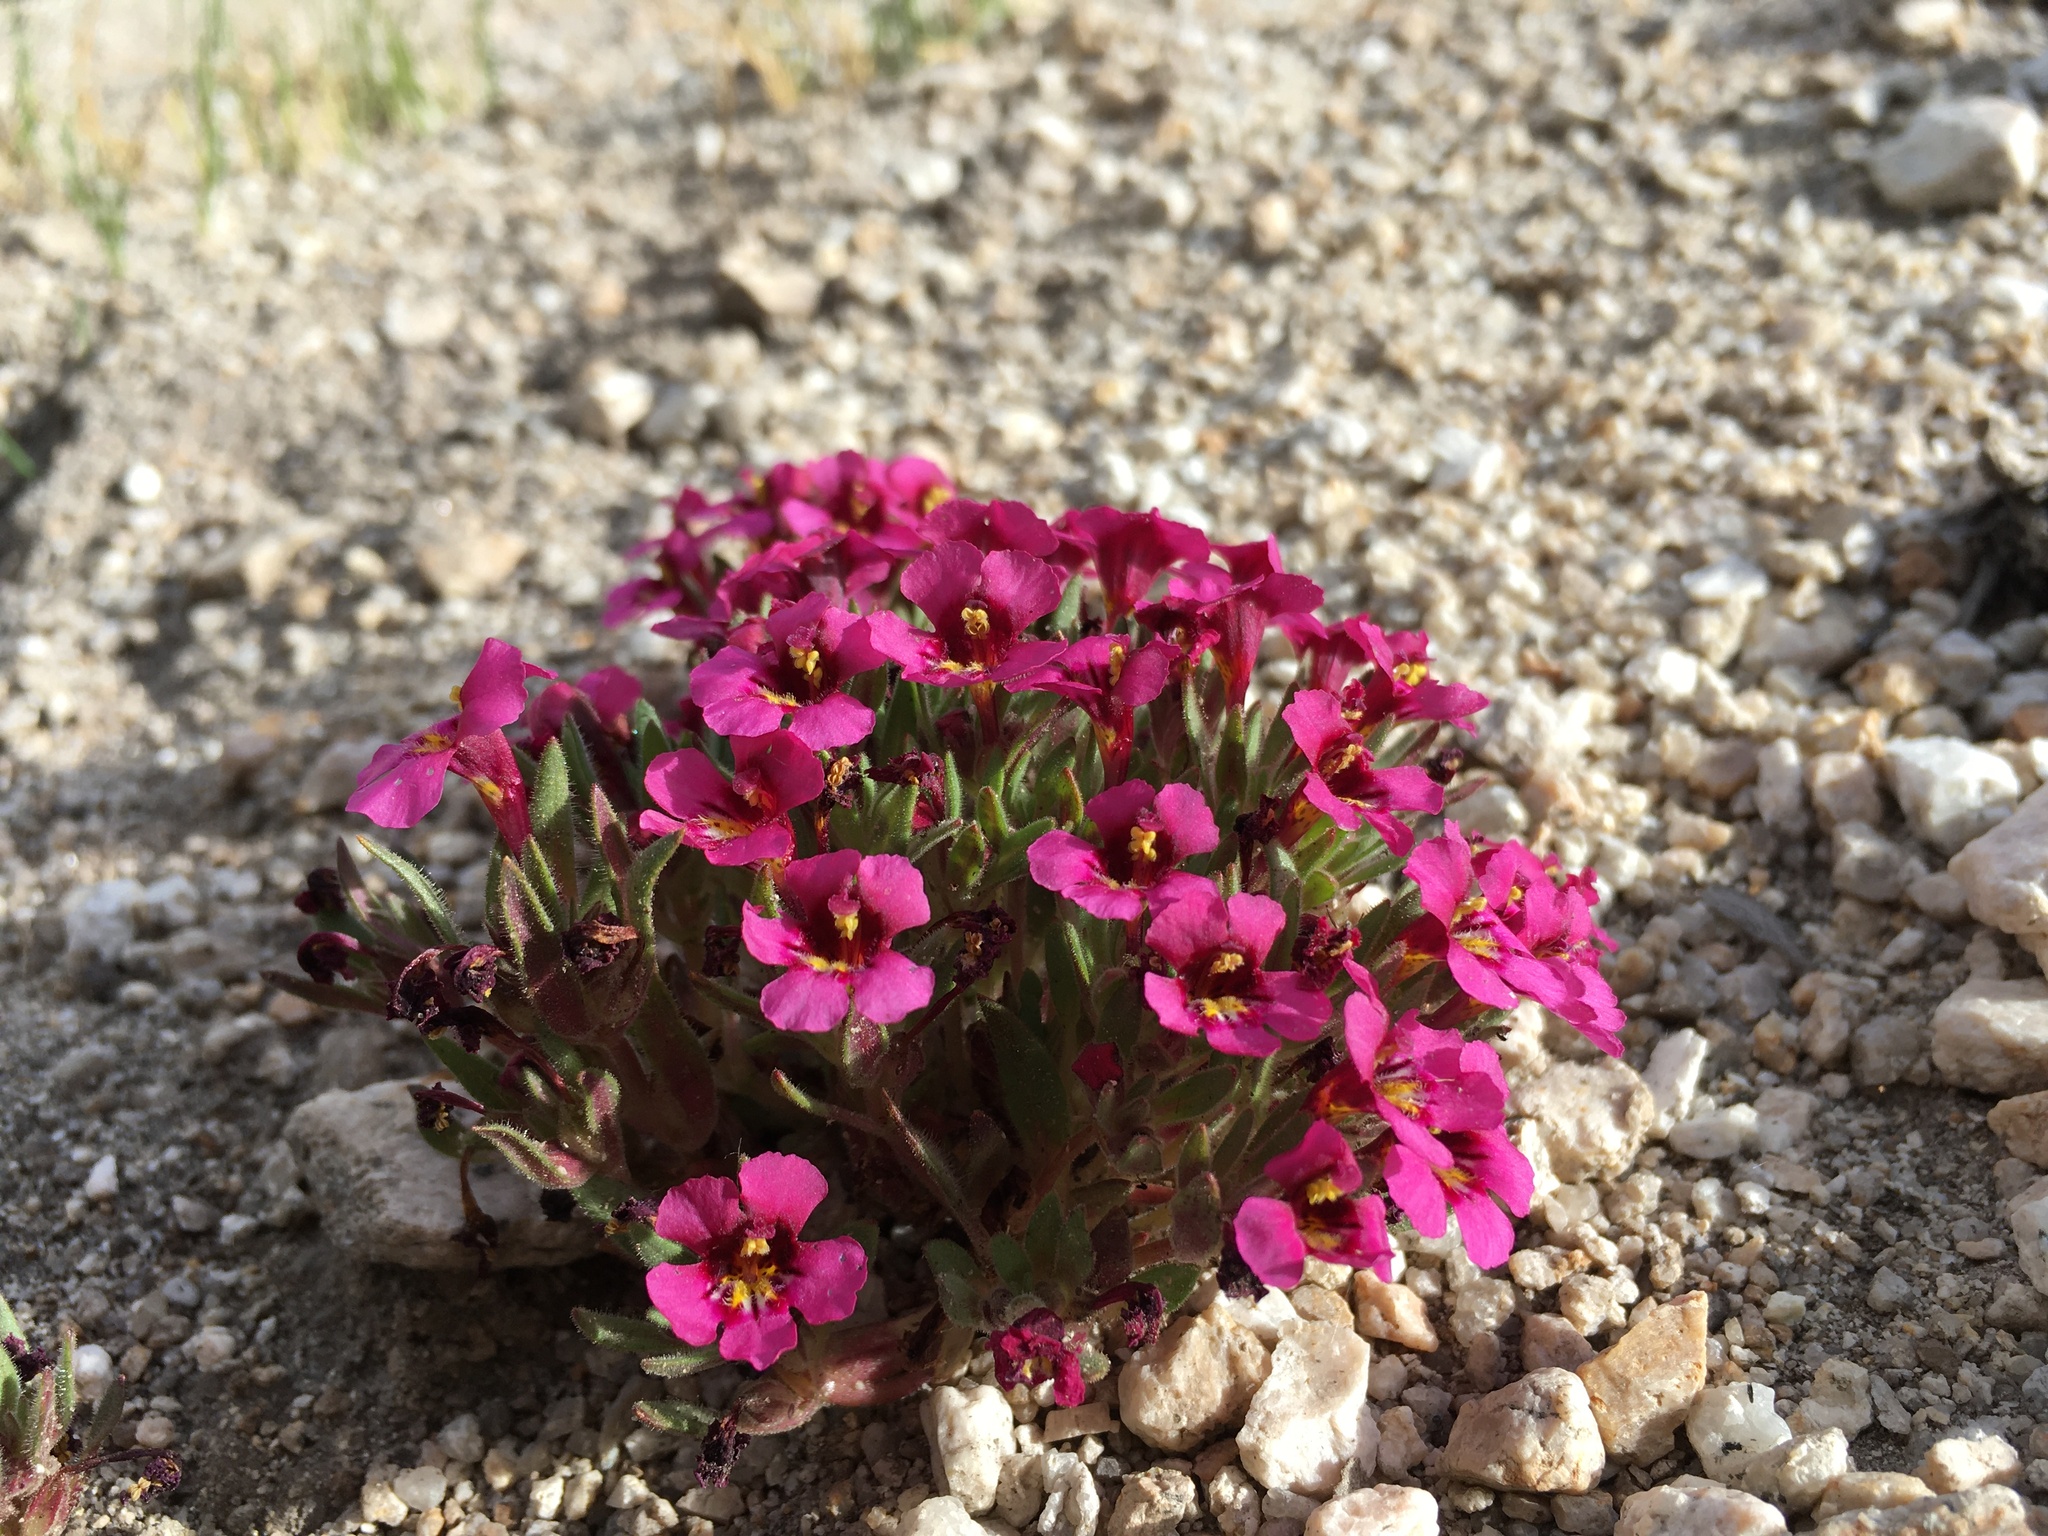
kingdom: Plantae
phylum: Tracheophyta
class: Magnoliopsida
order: Lamiales
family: Phrymaceae
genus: Diplacus
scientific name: Diplacus mephiticus
